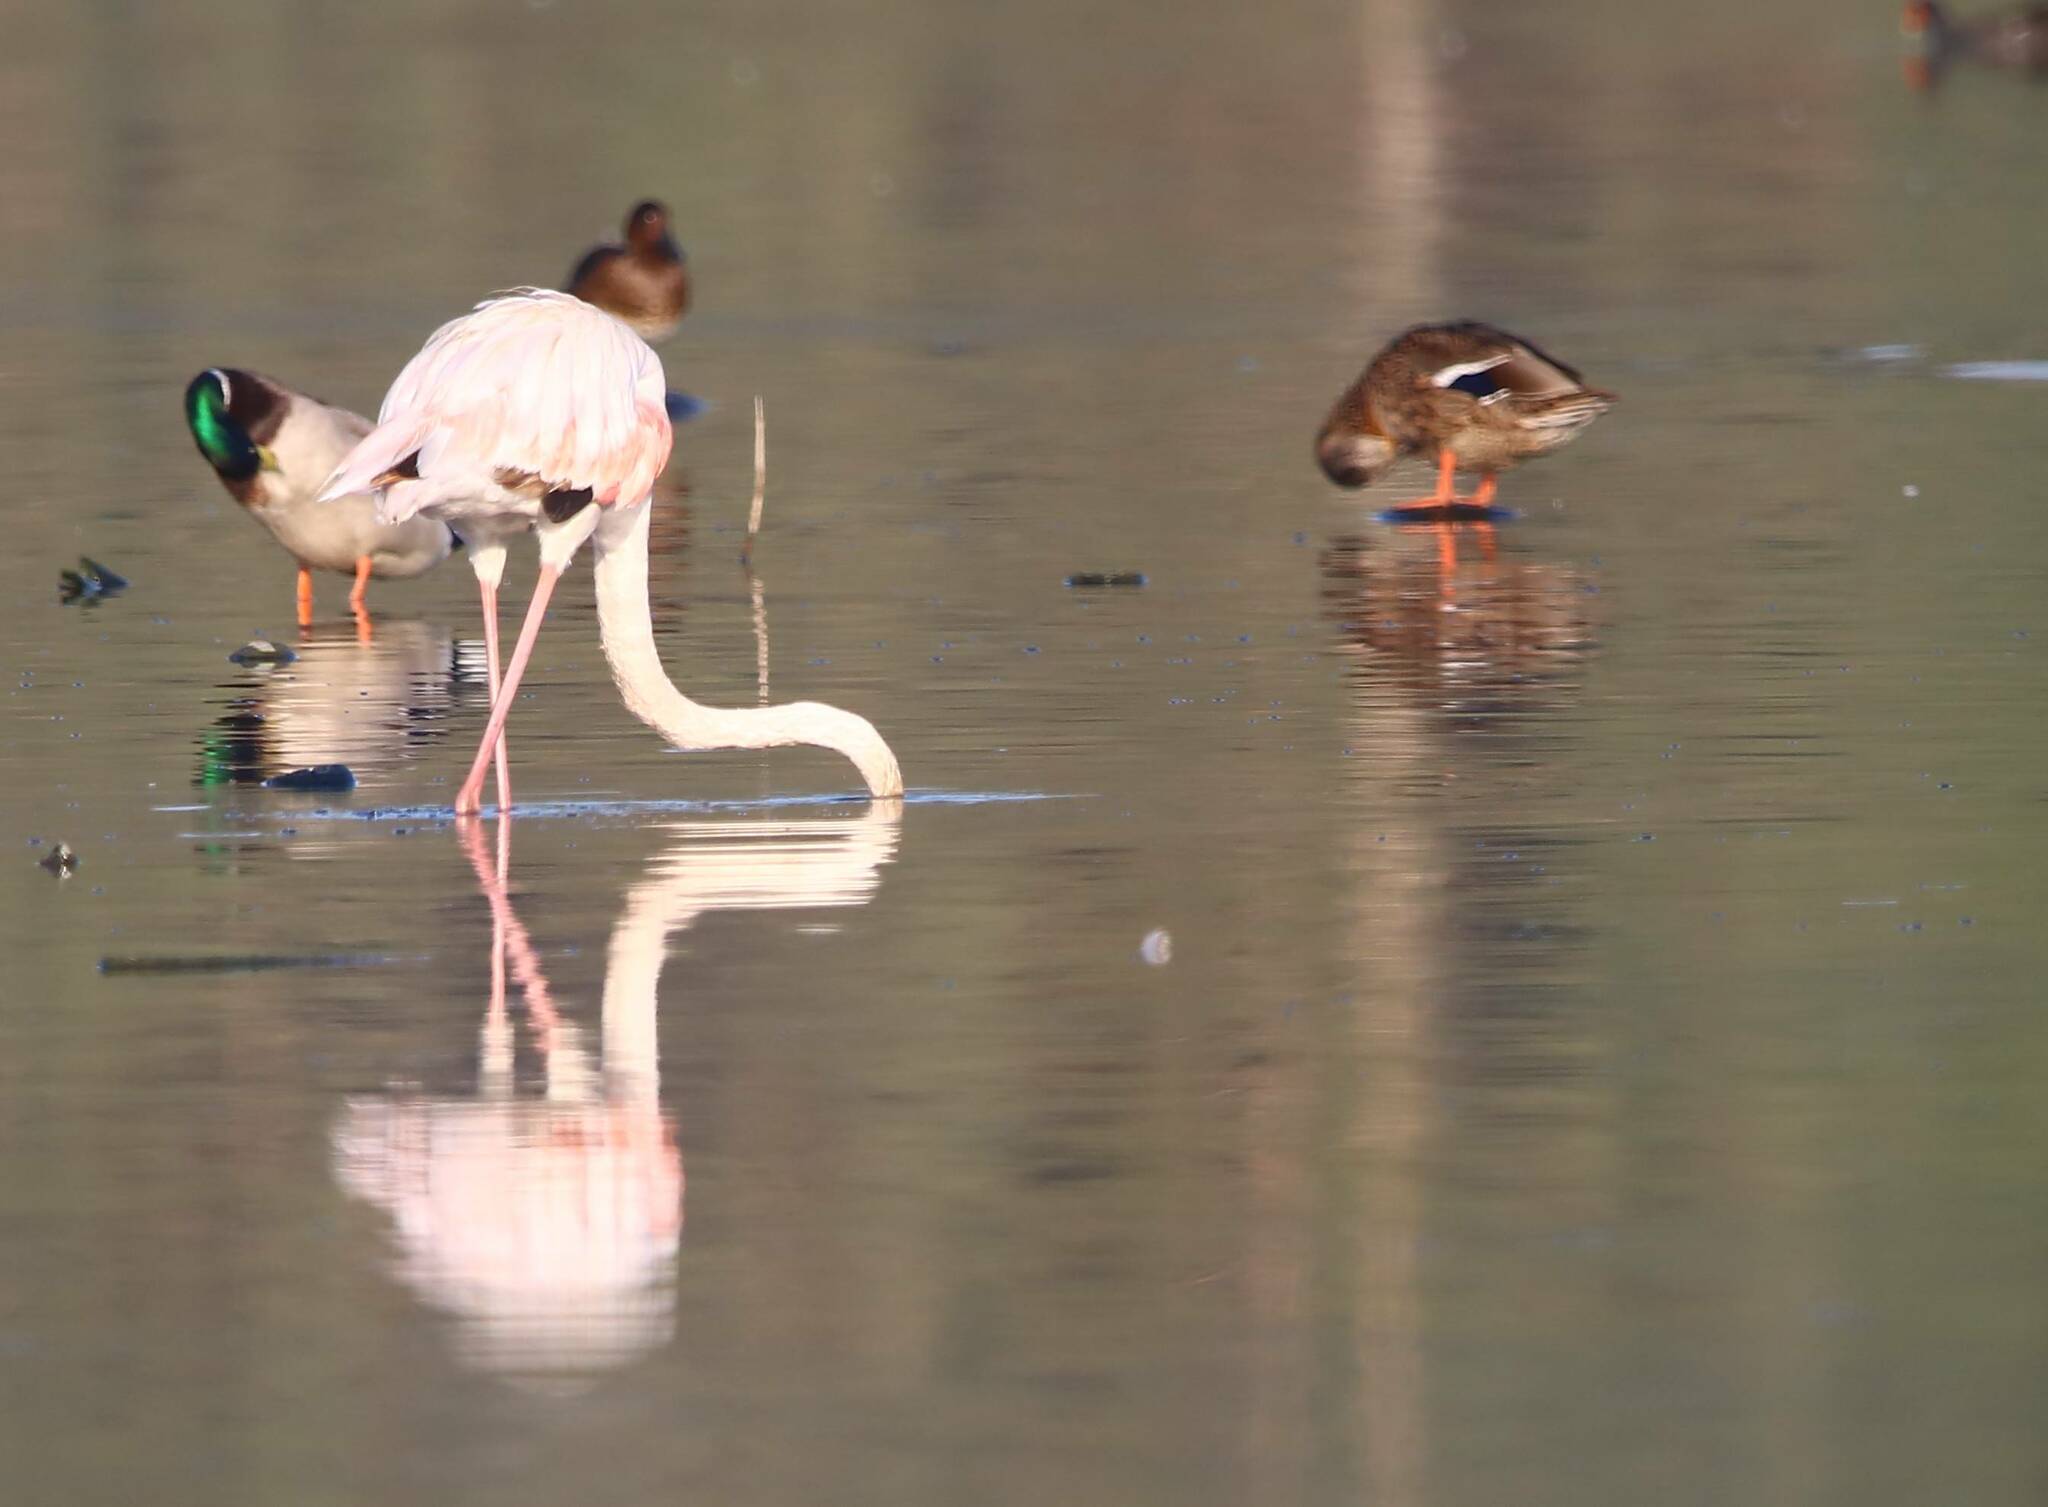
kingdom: Animalia
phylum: Chordata
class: Aves
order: Phoenicopteriformes
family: Phoenicopteridae
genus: Phoenicopterus
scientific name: Phoenicopterus roseus
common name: Greater flamingo
